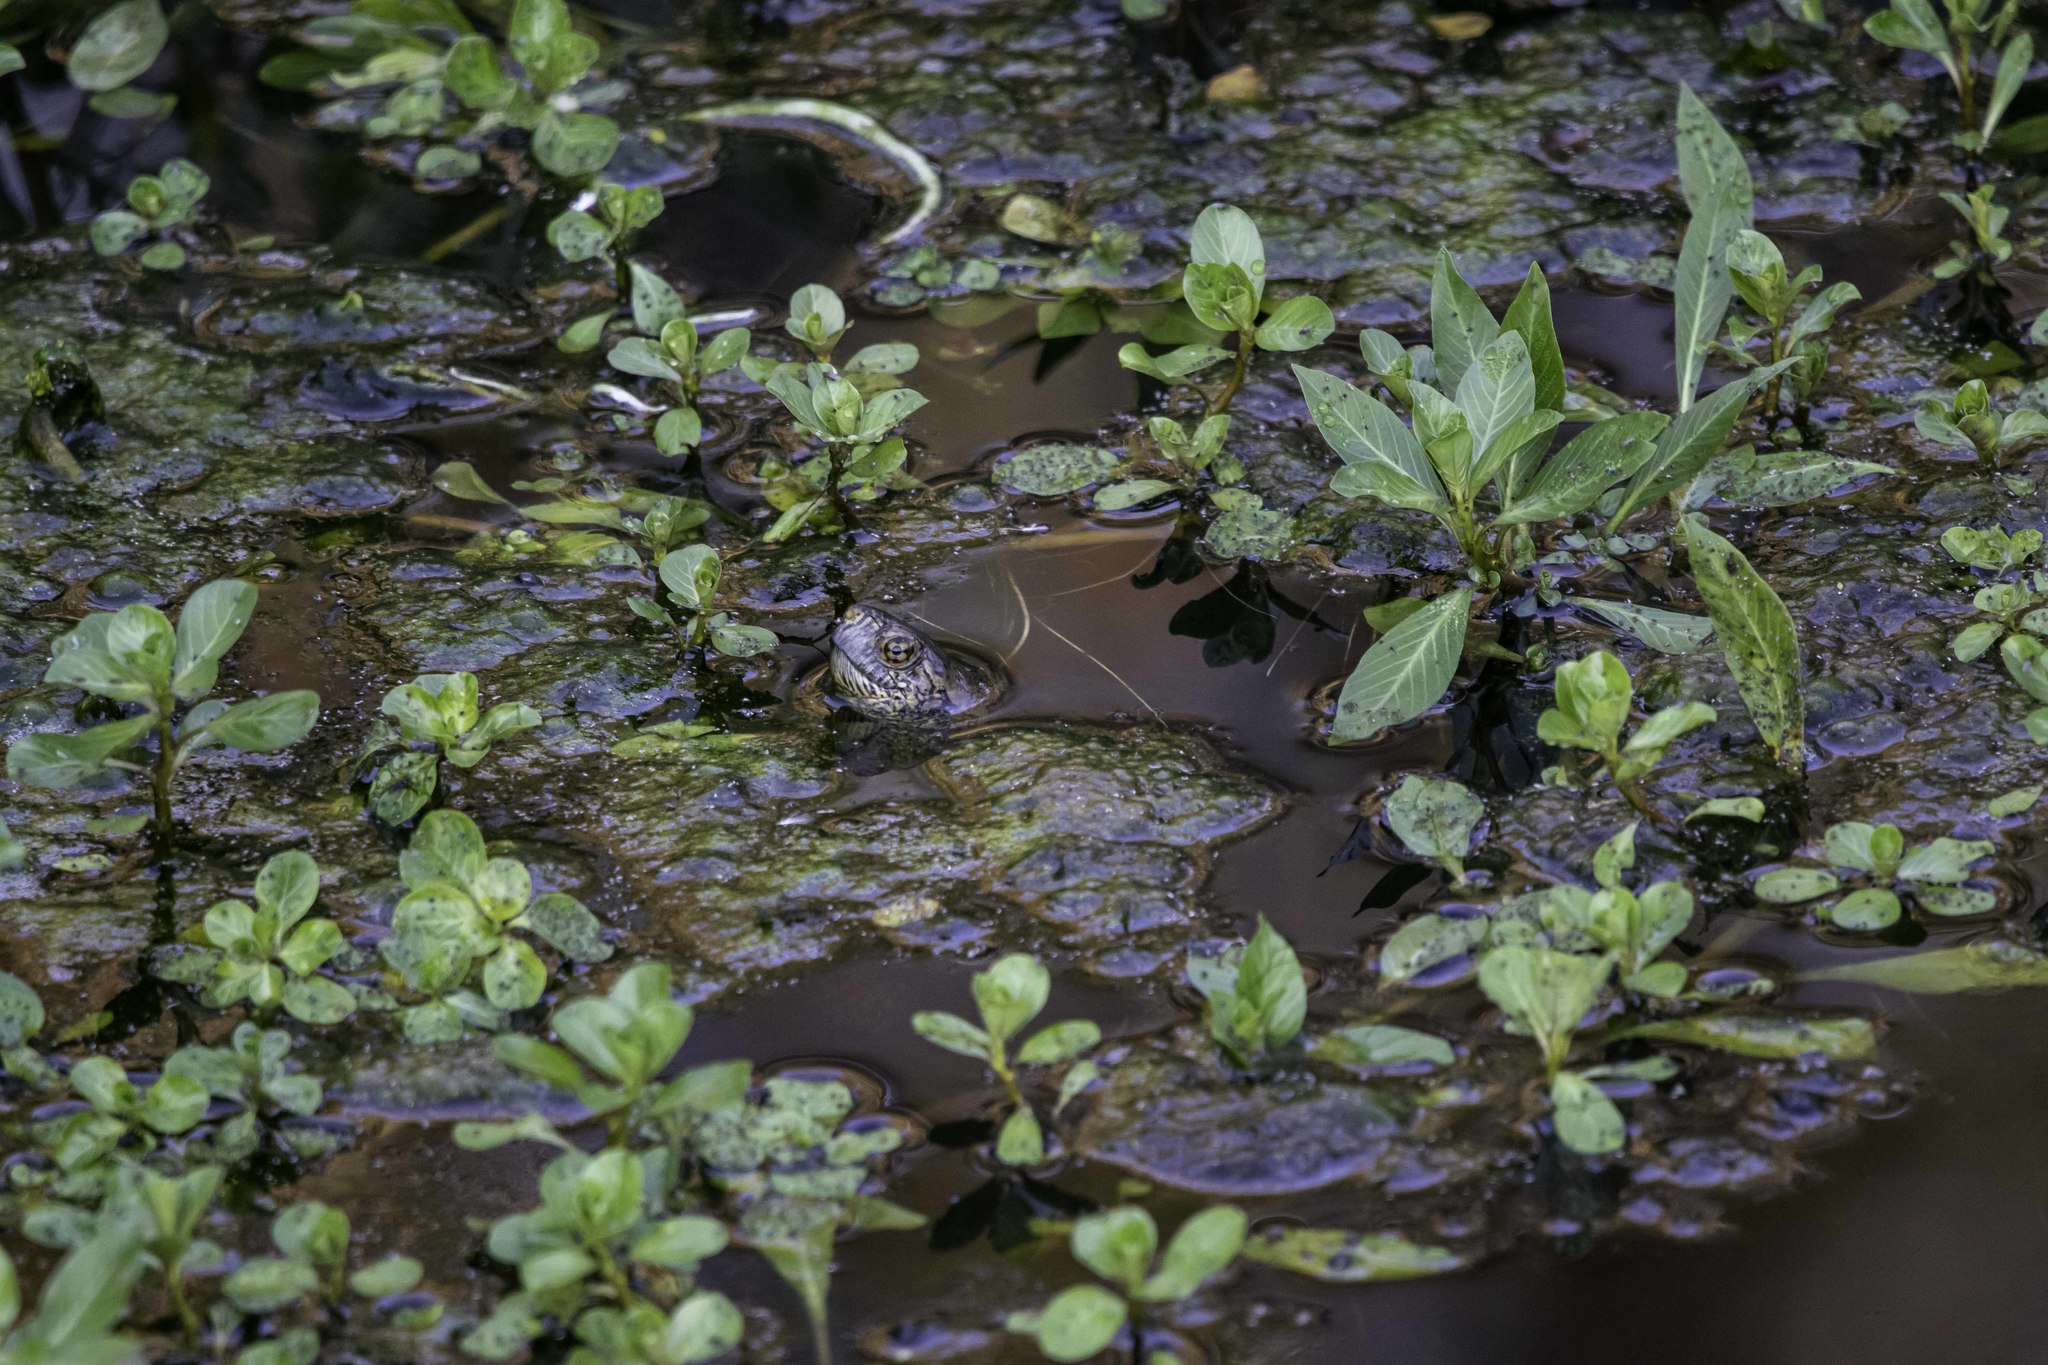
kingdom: Animalia
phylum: Chordata
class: Testudines
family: Emydidae
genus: Actinemys
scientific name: Actinemys marmorata
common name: Western pond turtle
